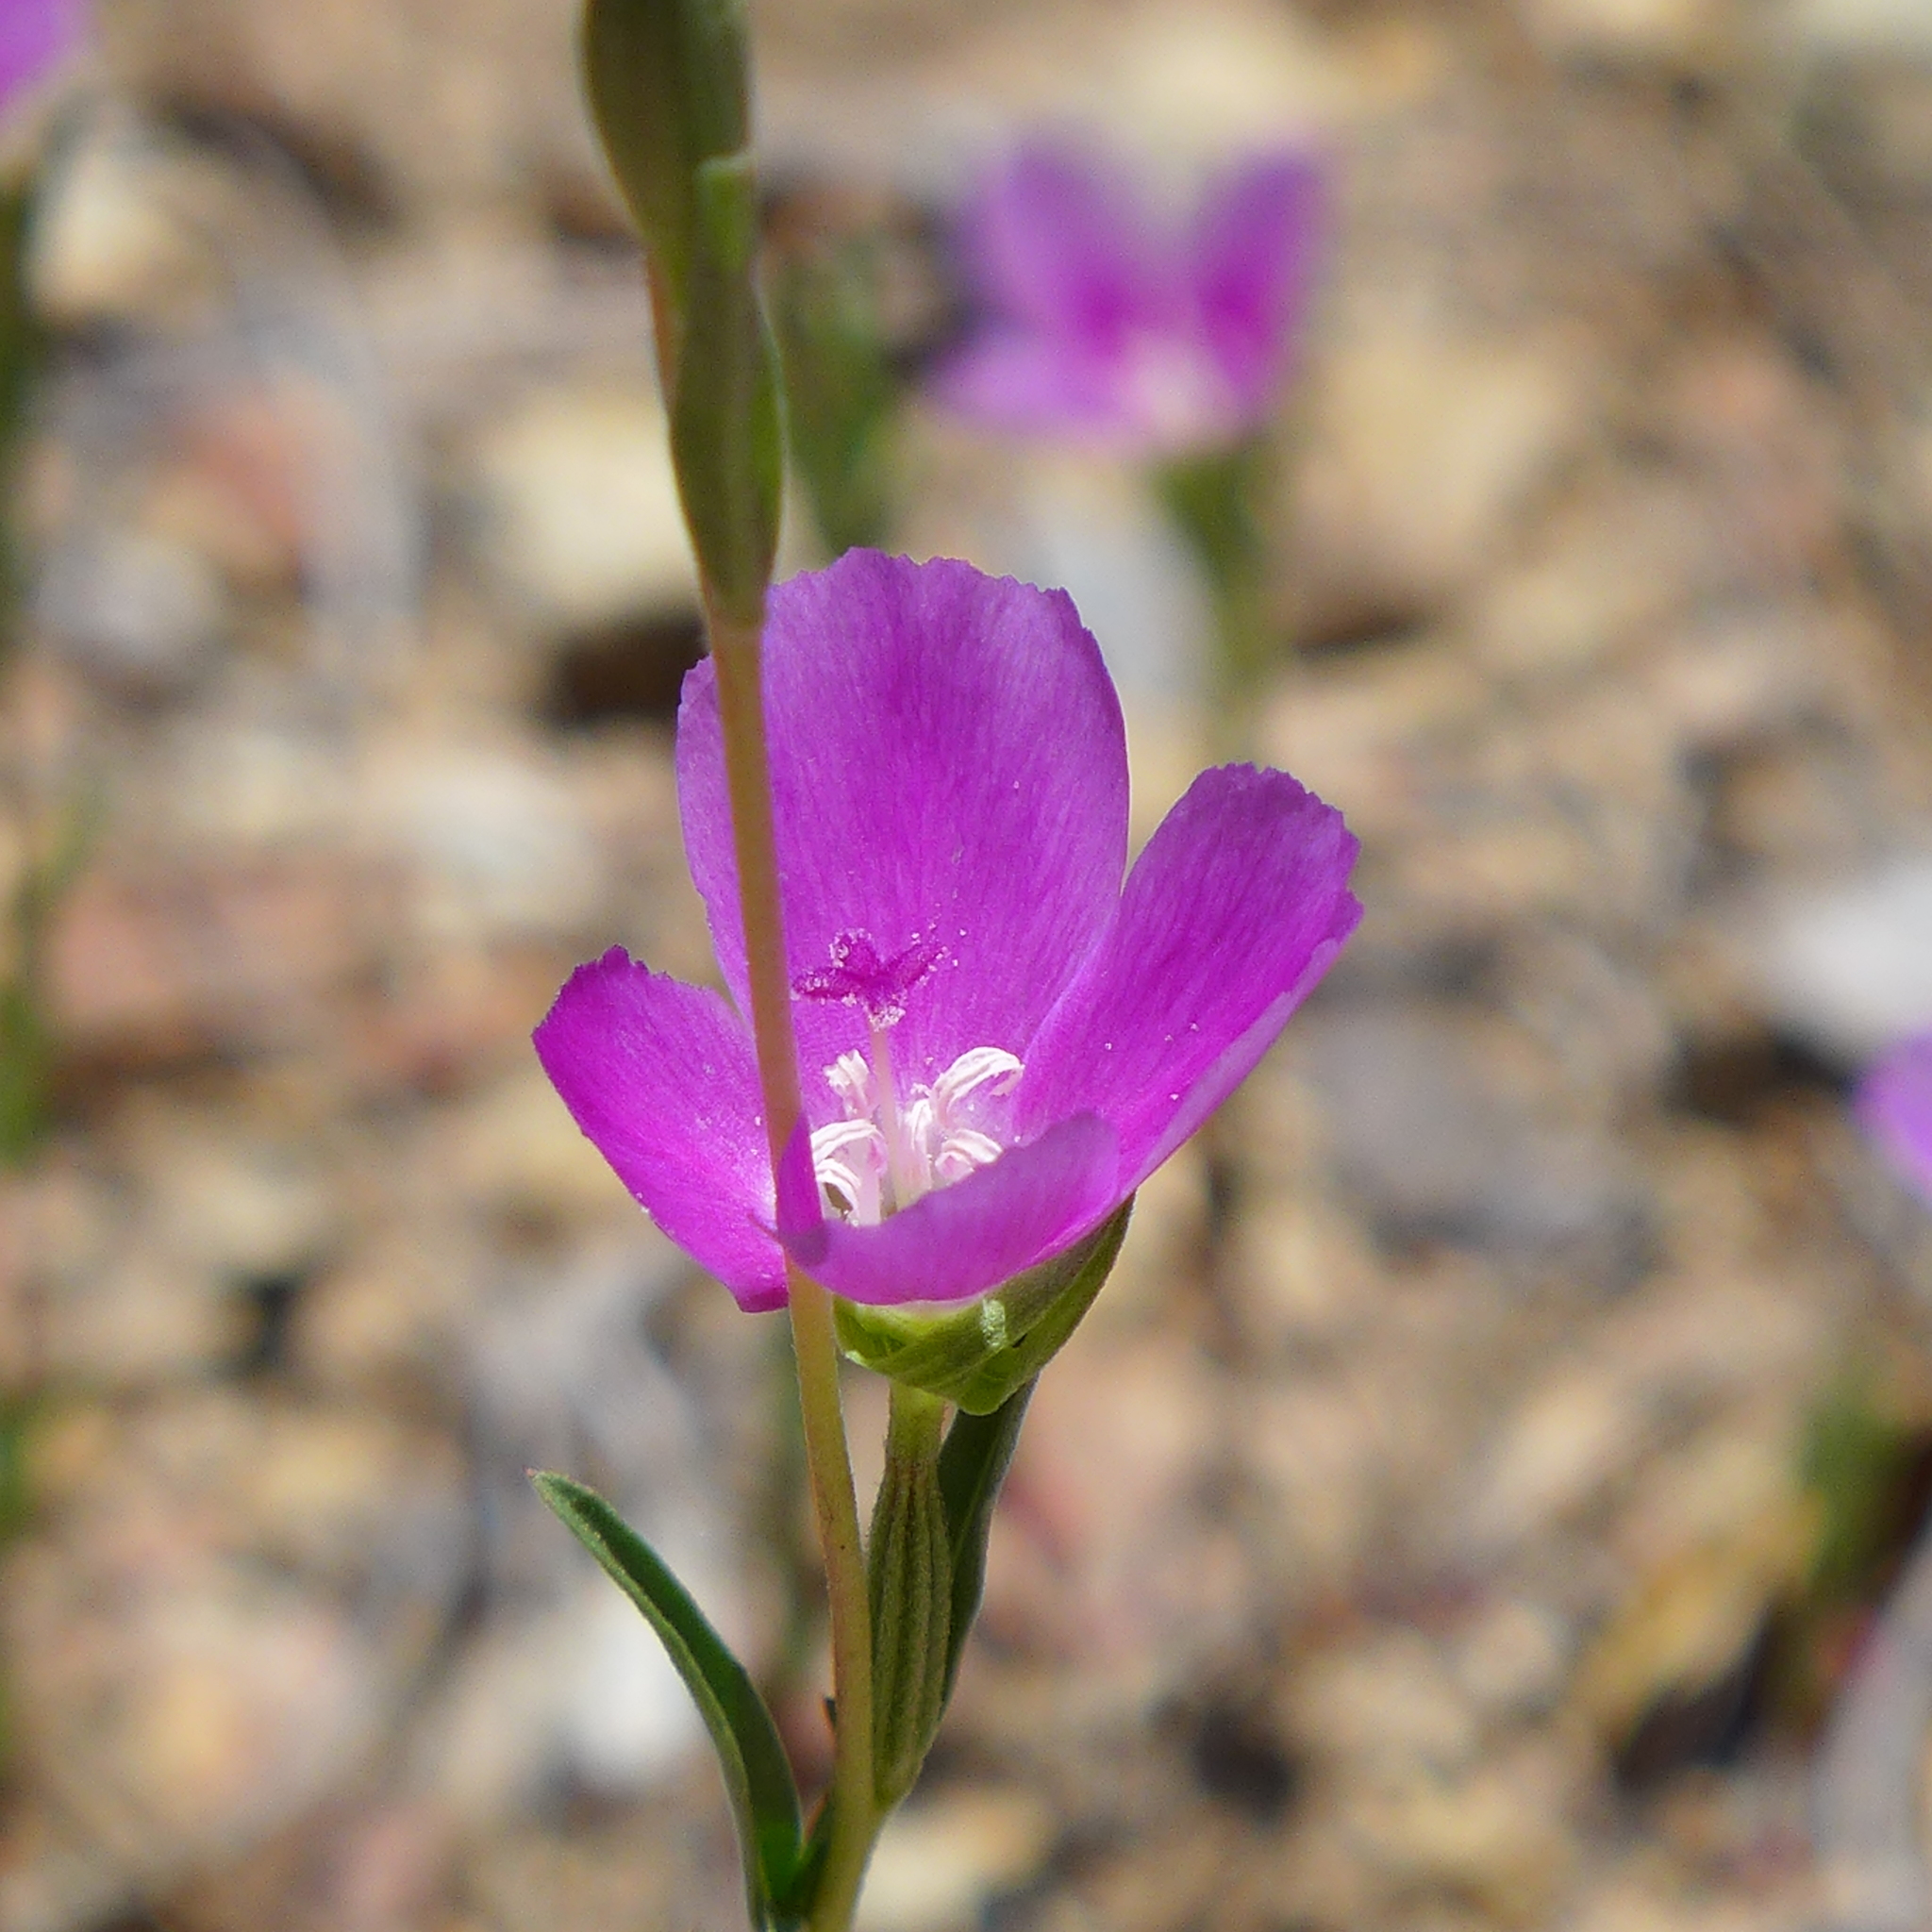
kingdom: Plantae
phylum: Tracheophyta
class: Magnoliopsida
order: Myrtales
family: Onagraceae
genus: Clarkia
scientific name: Clarkia purpurea
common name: Purple clarkia
